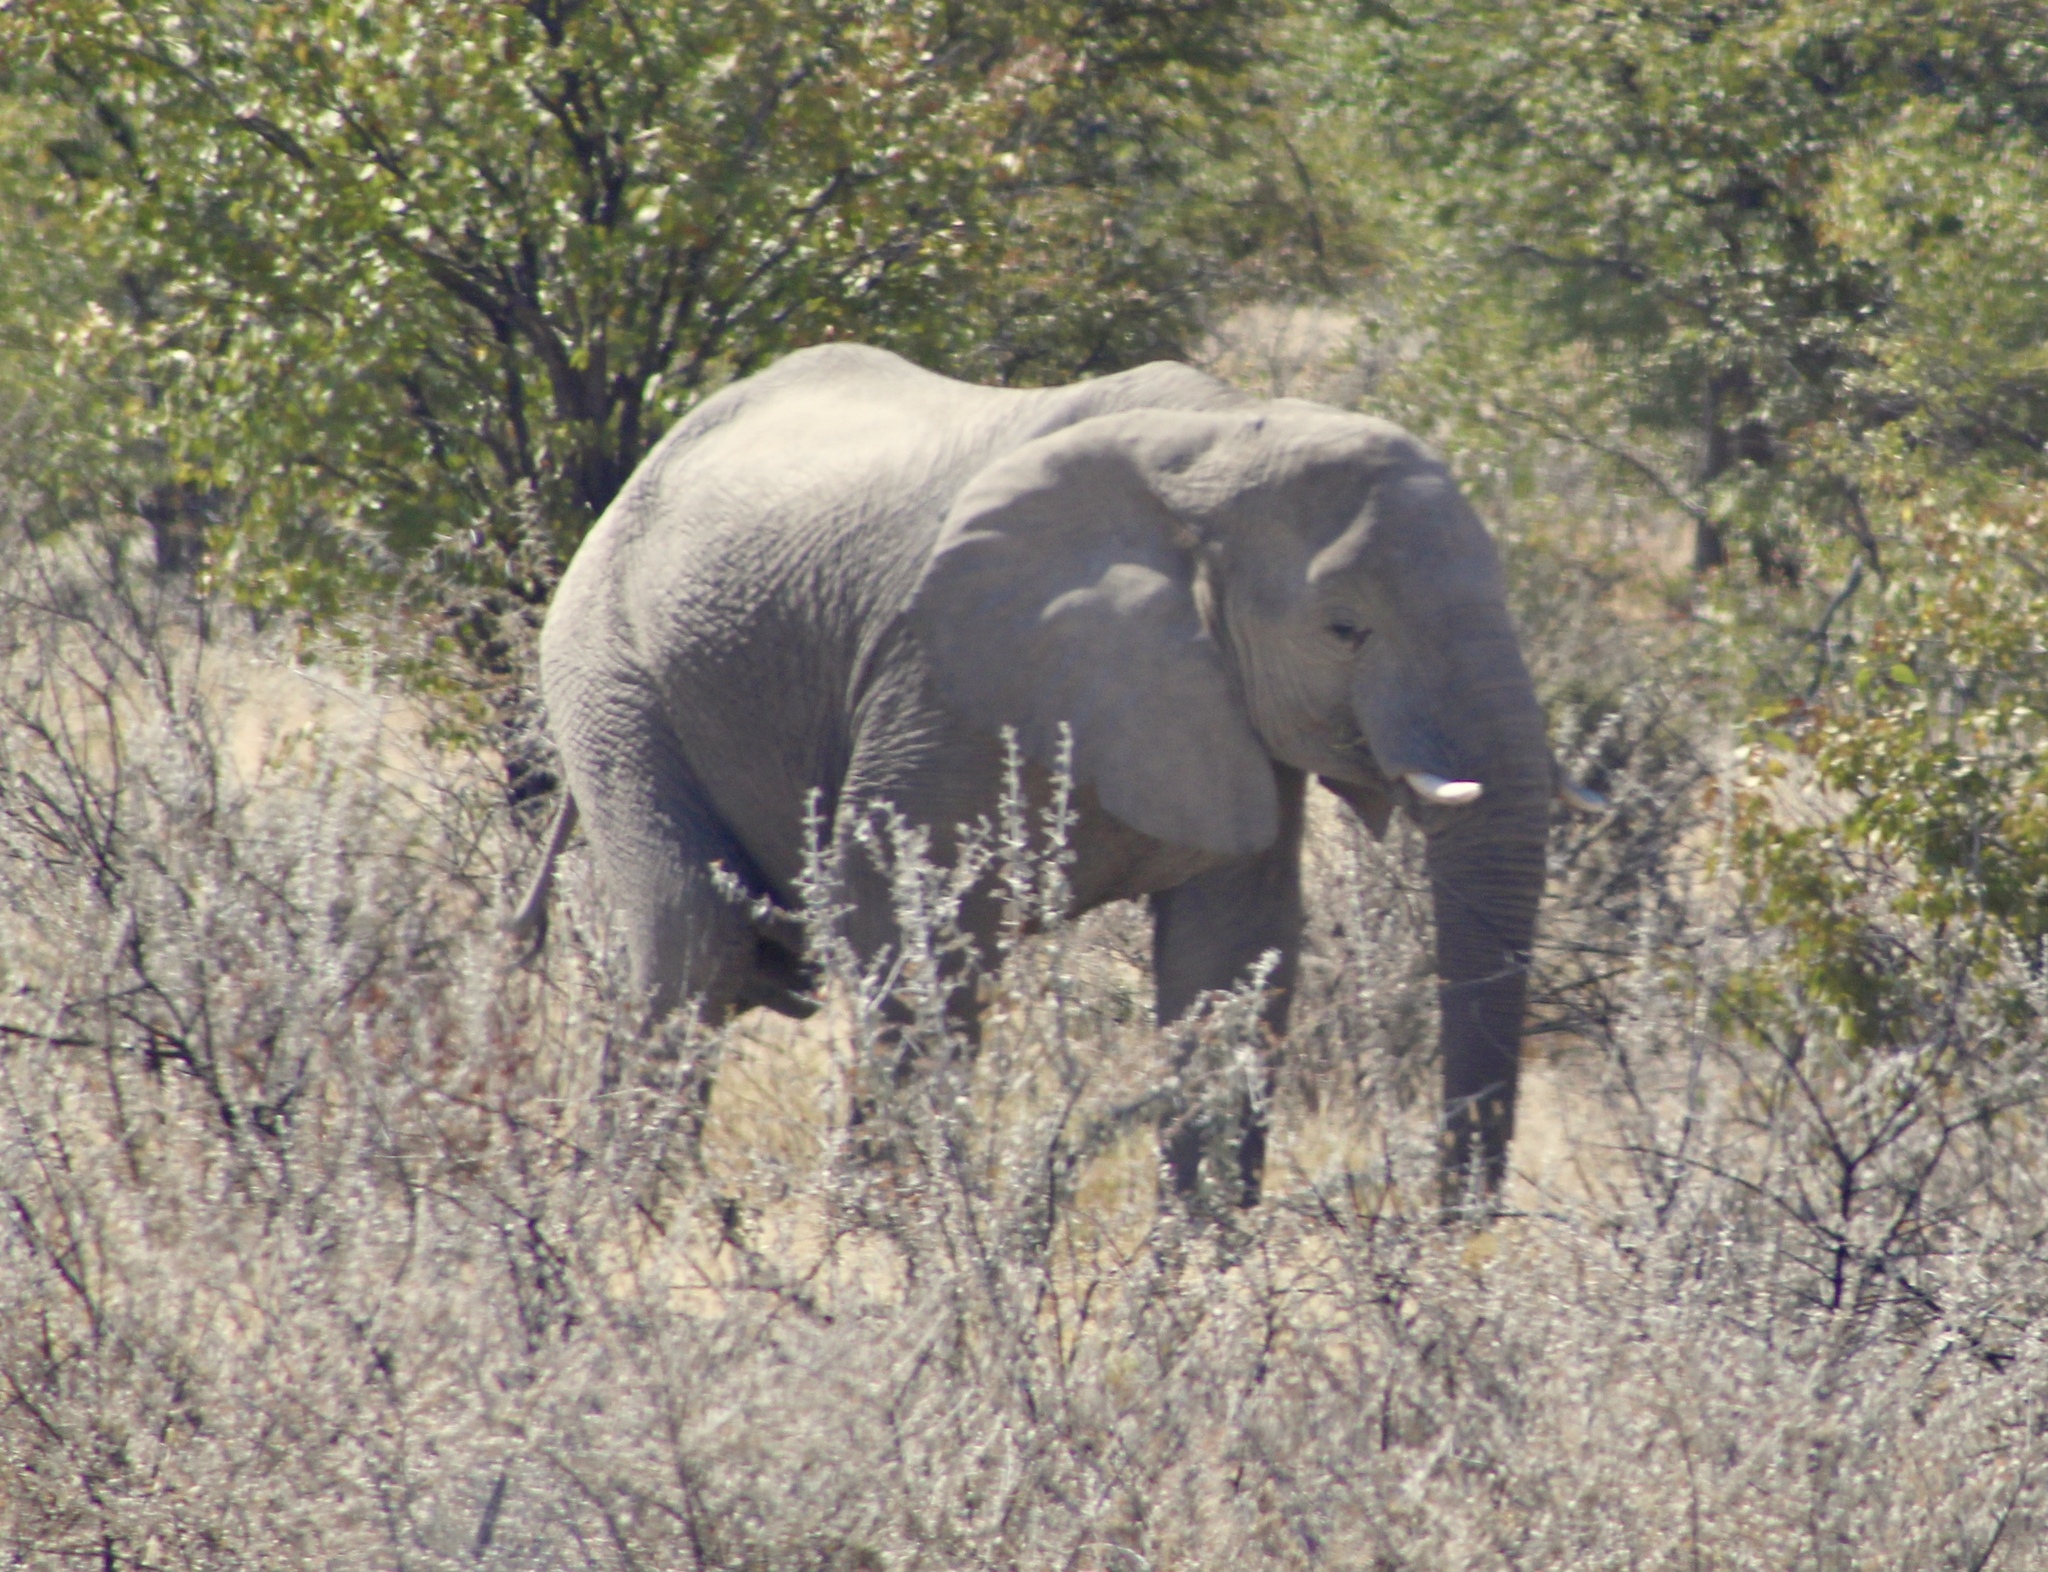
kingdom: Animalia
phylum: Chordata
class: Mammalia
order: Proboscidea
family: Elephantidae
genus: Loxodonta
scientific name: Loxodonta africana
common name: African elephant
